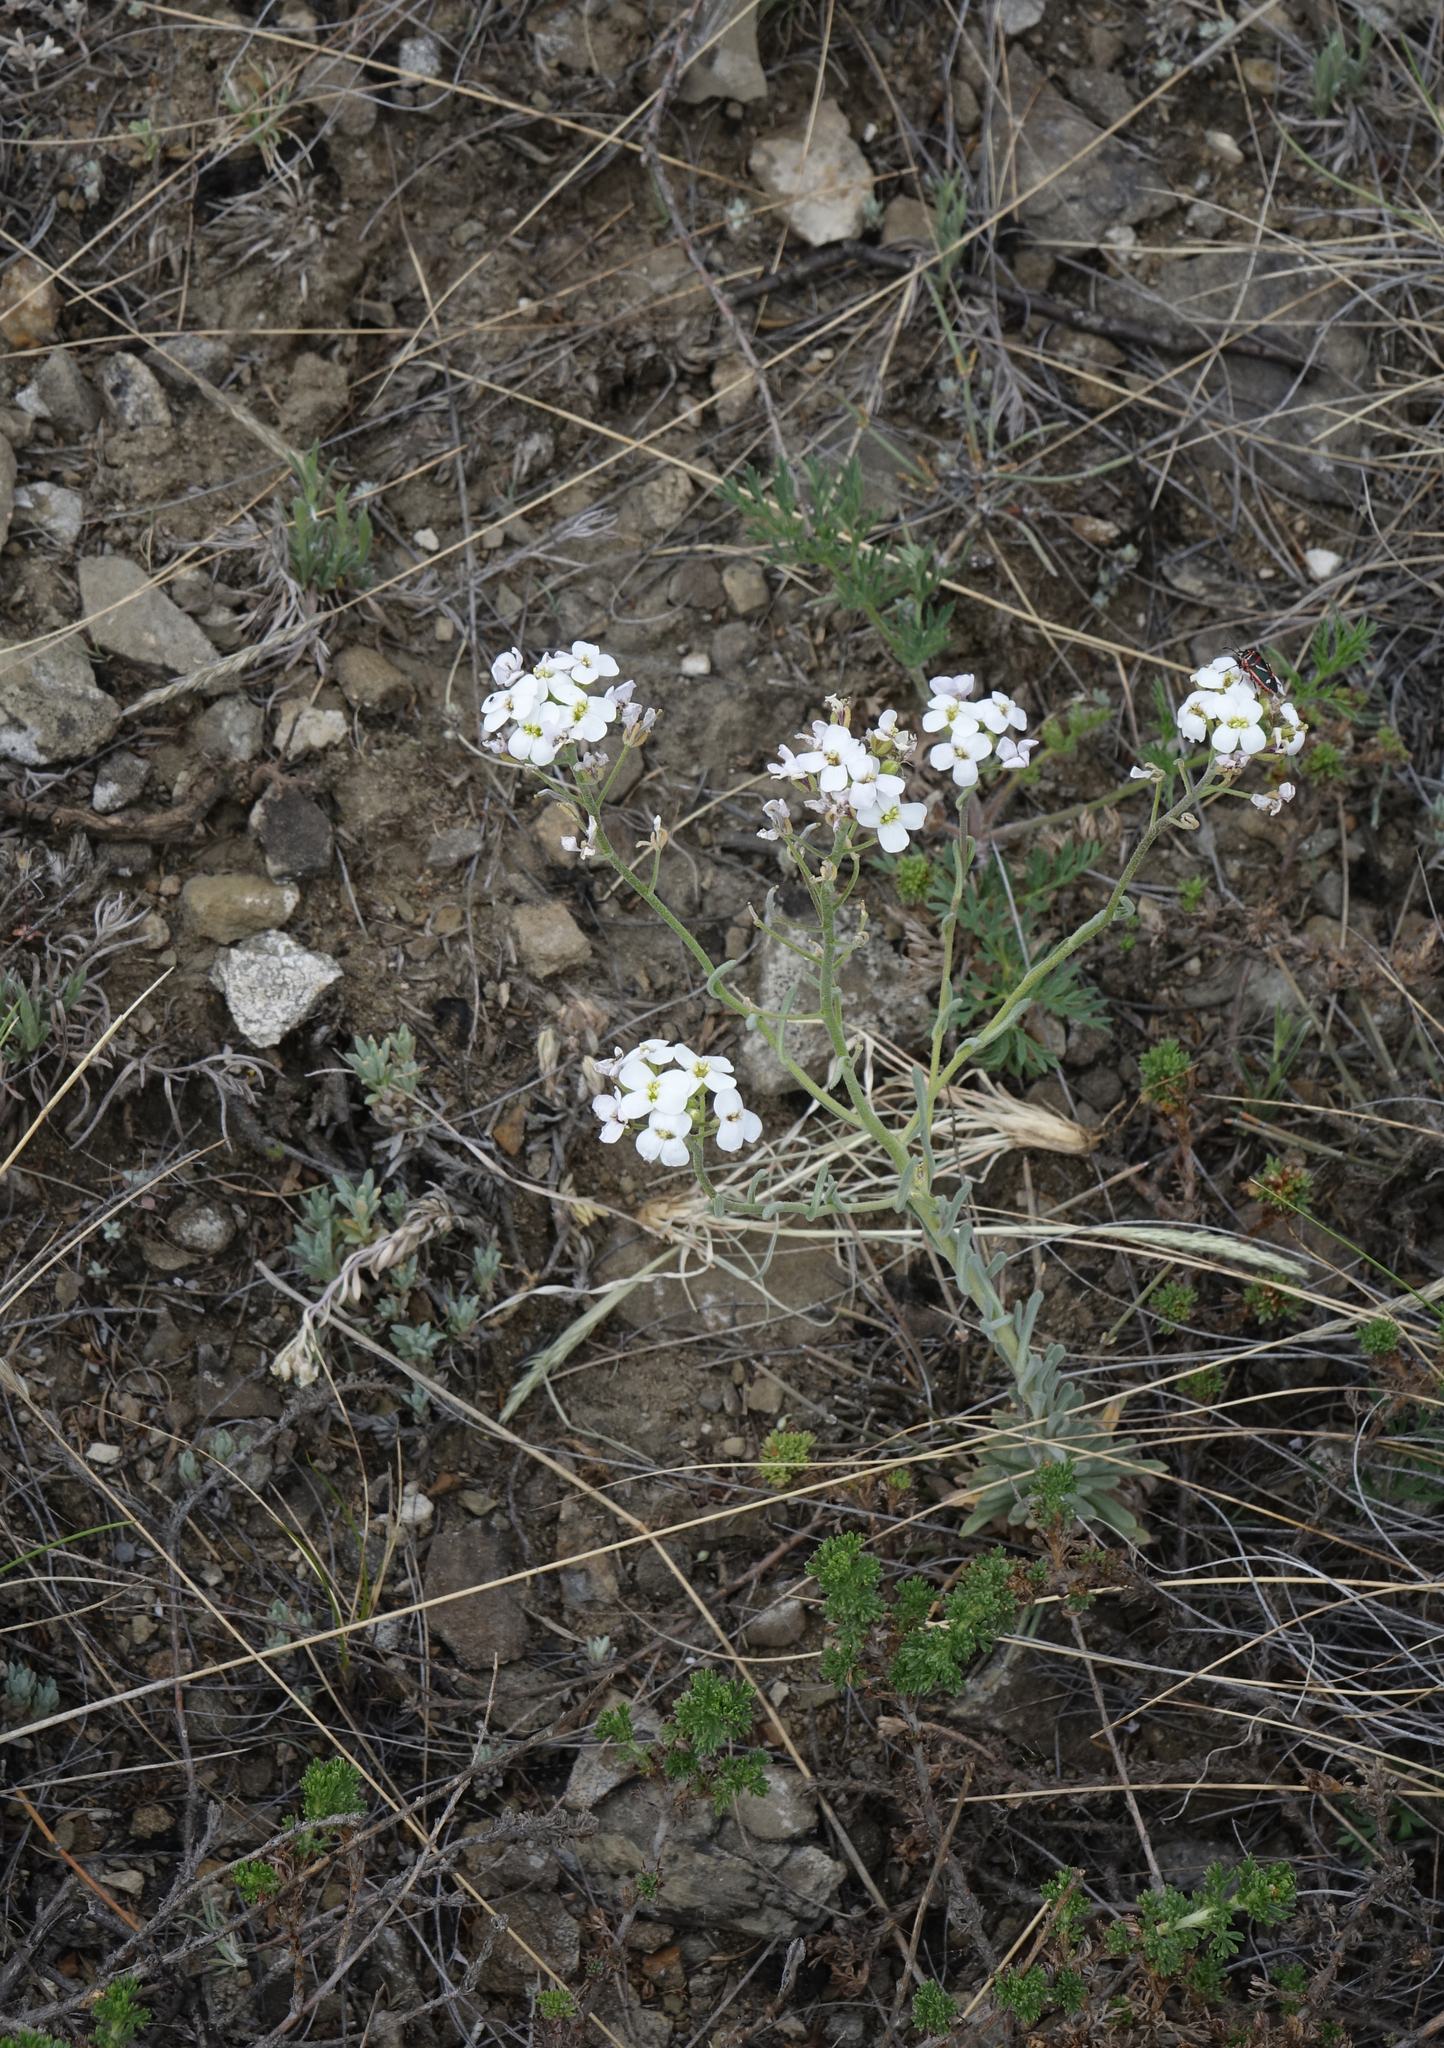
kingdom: Plantae
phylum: Tracheophyta
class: Magnoliopsida
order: Brassicales
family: Brassicaceae
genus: Stevenia
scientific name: Stevenia incarnata
